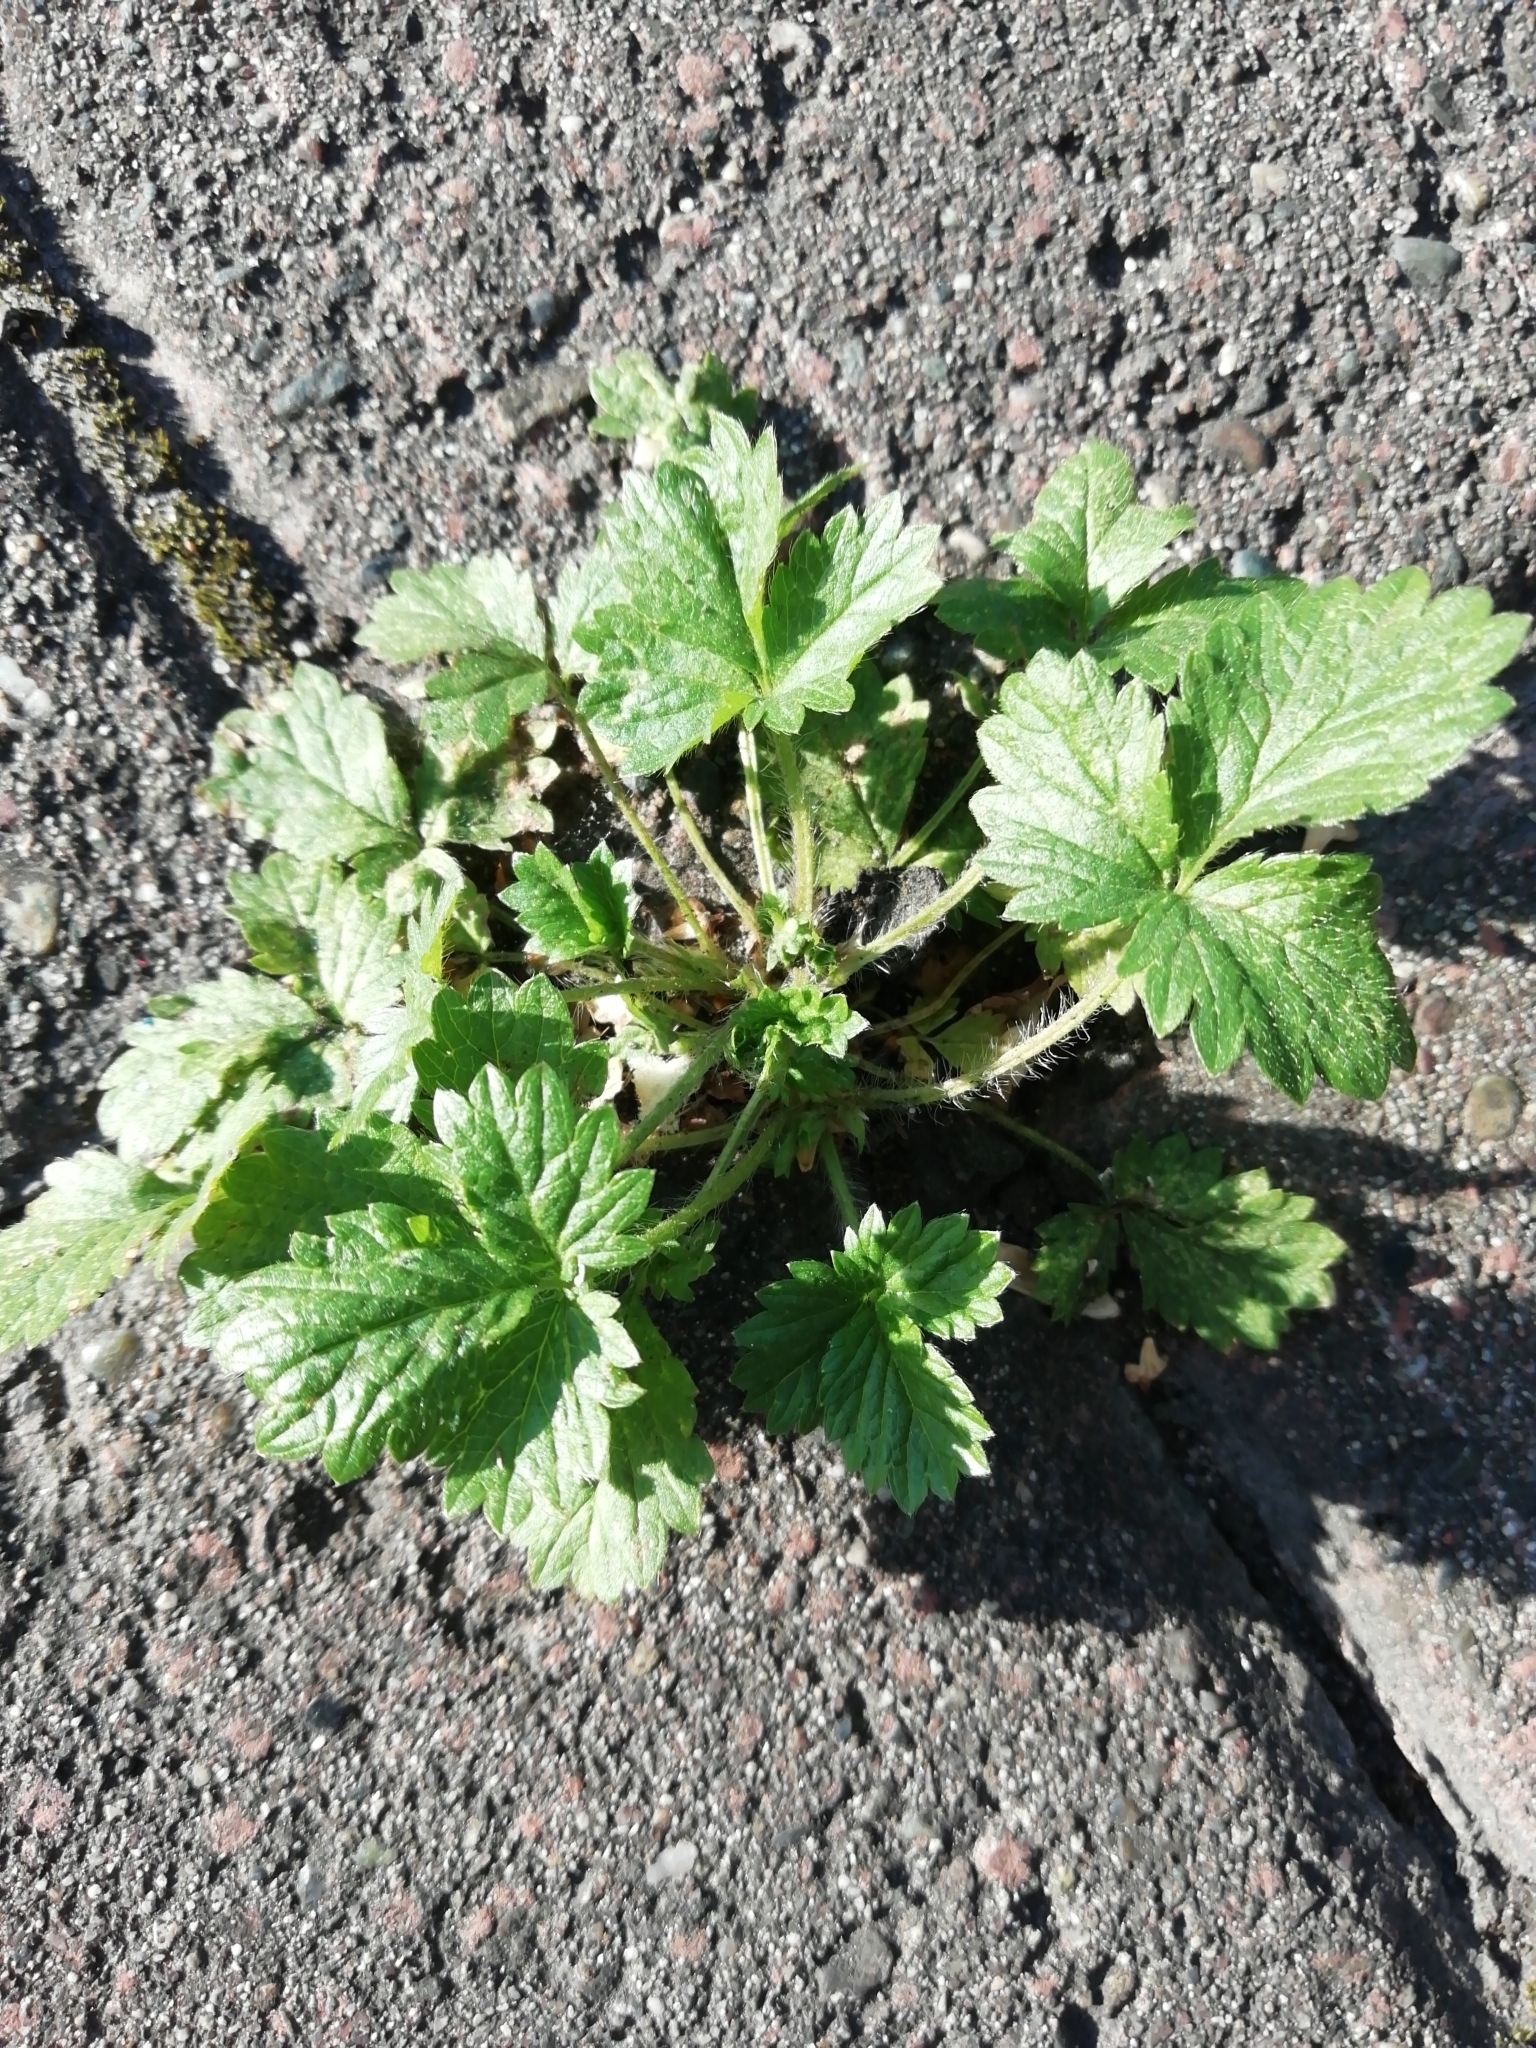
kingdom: Plantae
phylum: Tracheophyta
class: Magnoliopsida
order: Rosales
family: Rosaceae
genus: Potentilla
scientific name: Potentilla norvegica
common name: Ternate-leaved cinquefoil
